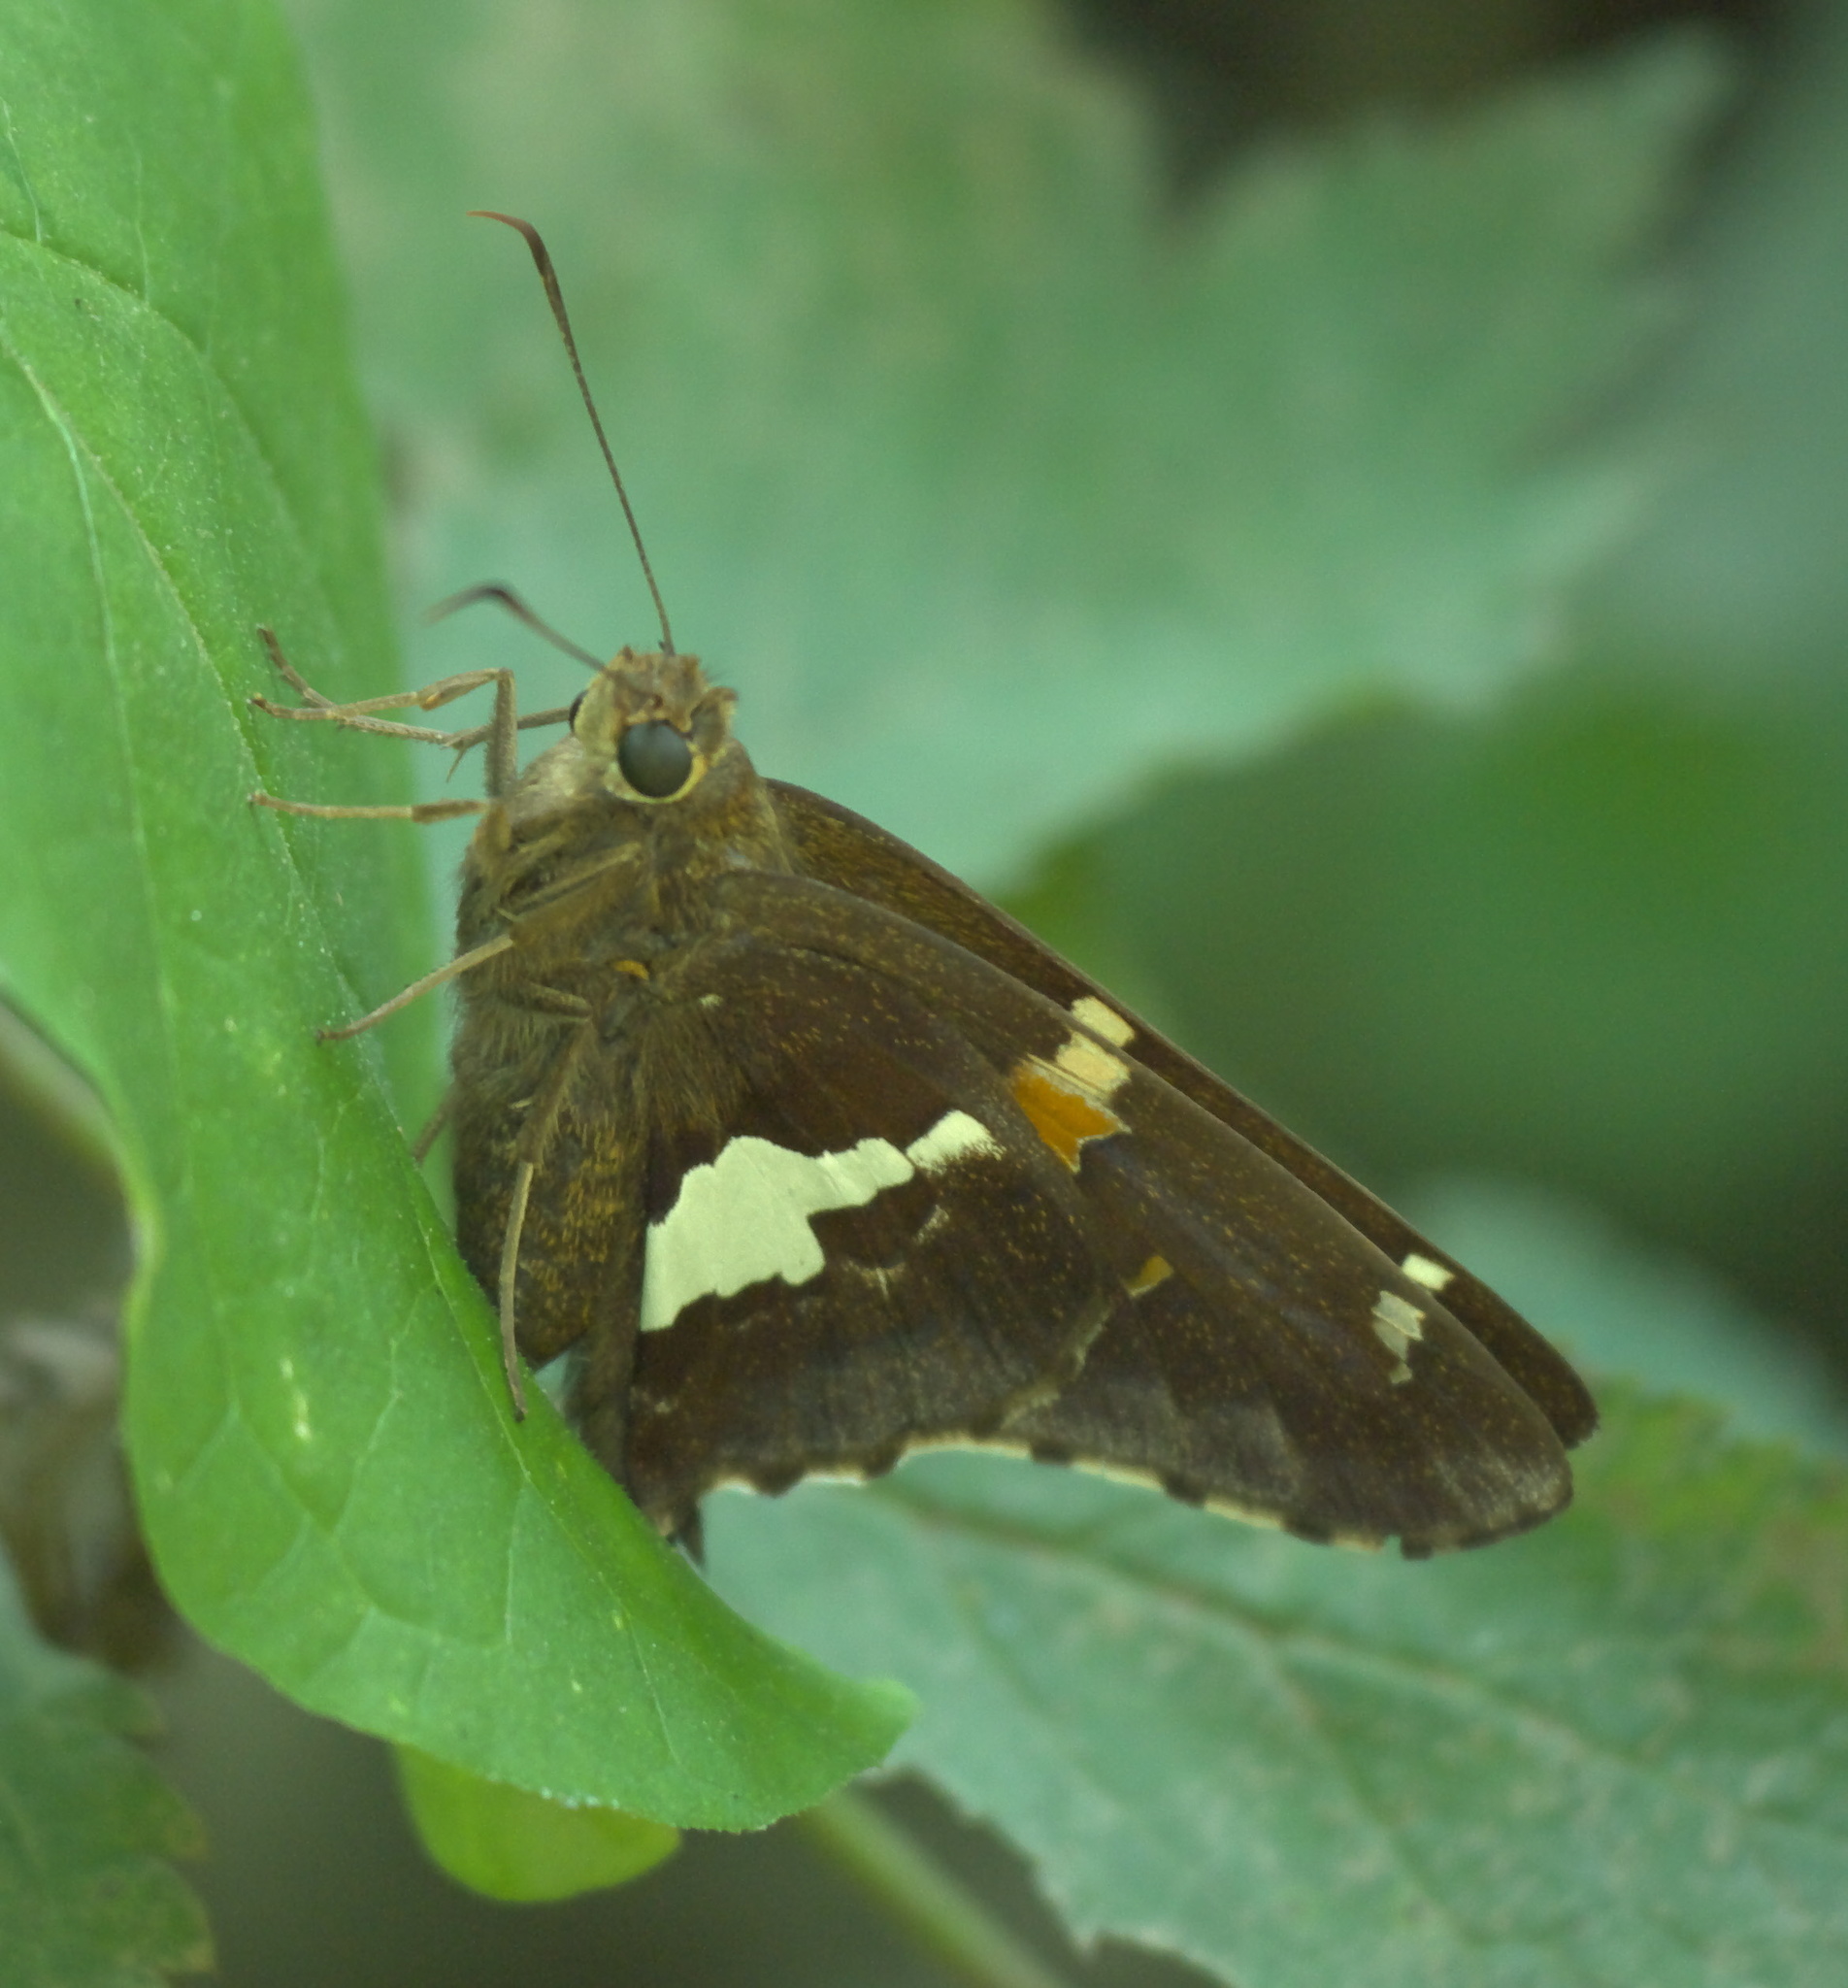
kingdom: Animalia
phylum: Arthropoda
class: Insecta
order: Lepidoptera
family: Hesperiidae
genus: Epargyreus
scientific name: Epargyreus clarus
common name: Silver-spotted skipper
